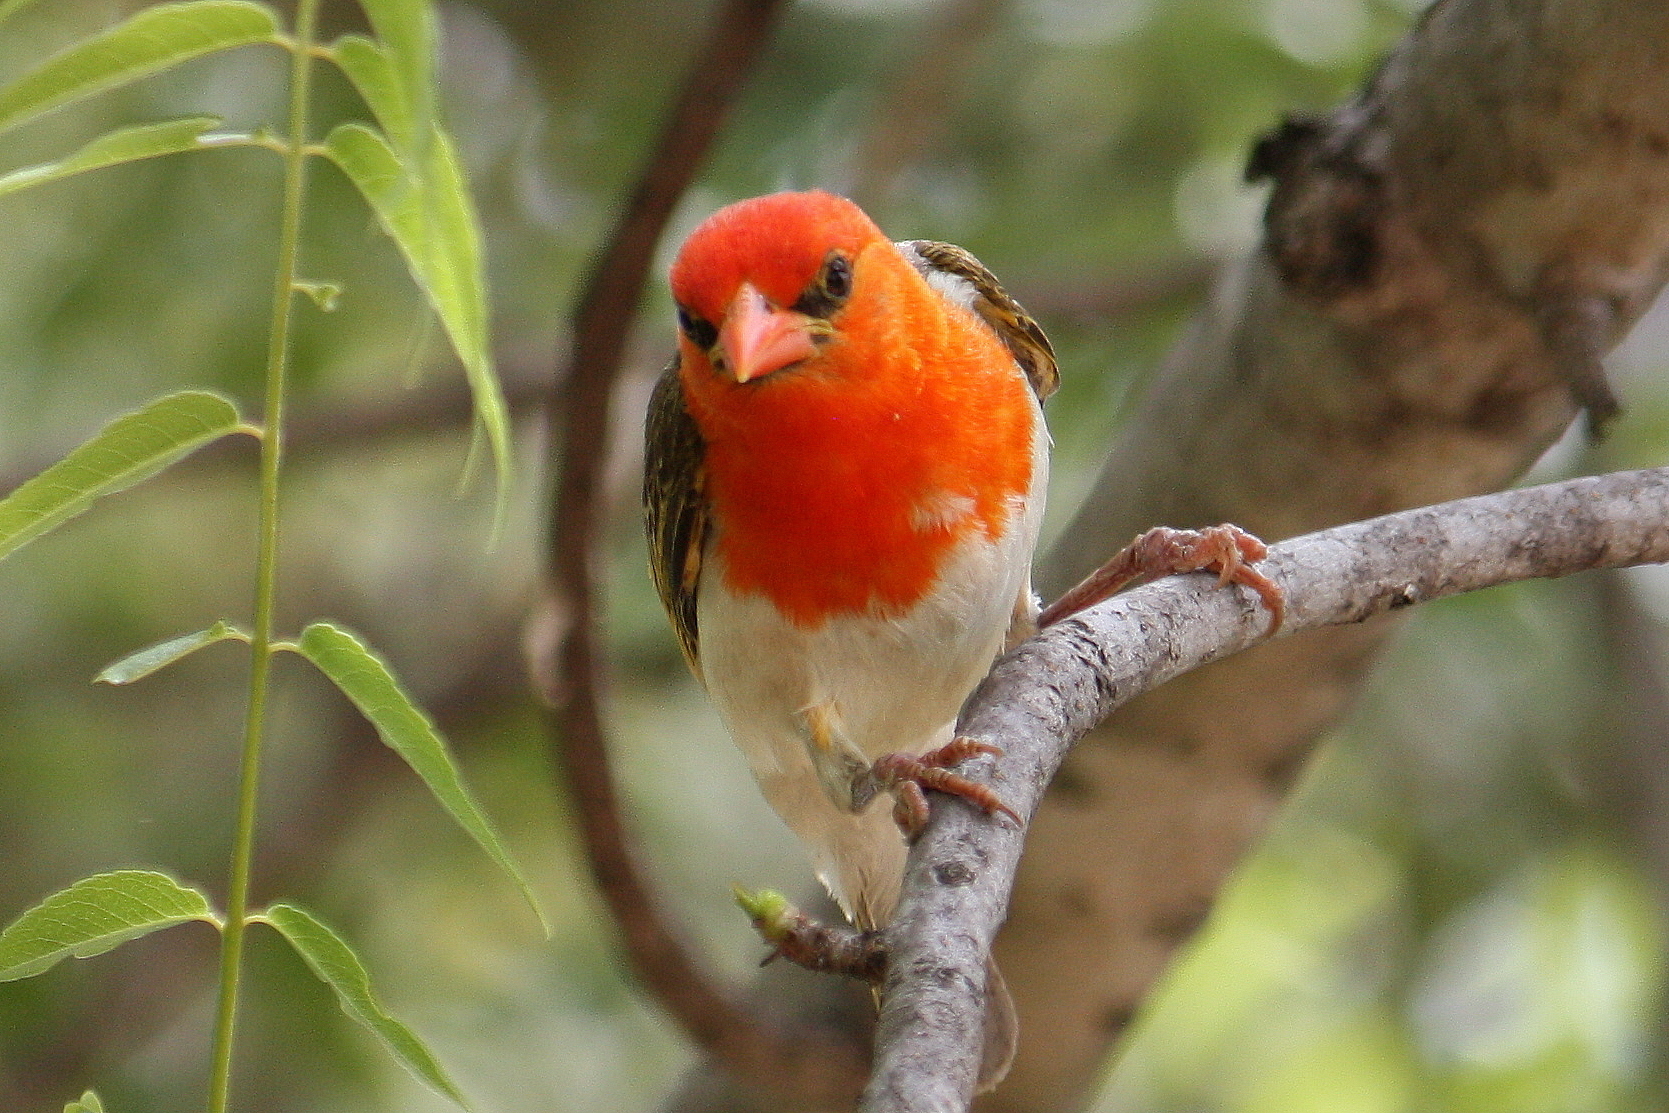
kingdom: Animalia
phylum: Chordata
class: Aves
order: Passeriformes
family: Ploceidae
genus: Anaplectes
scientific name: Anaplectes rubriceps
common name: Red-headed weaver
